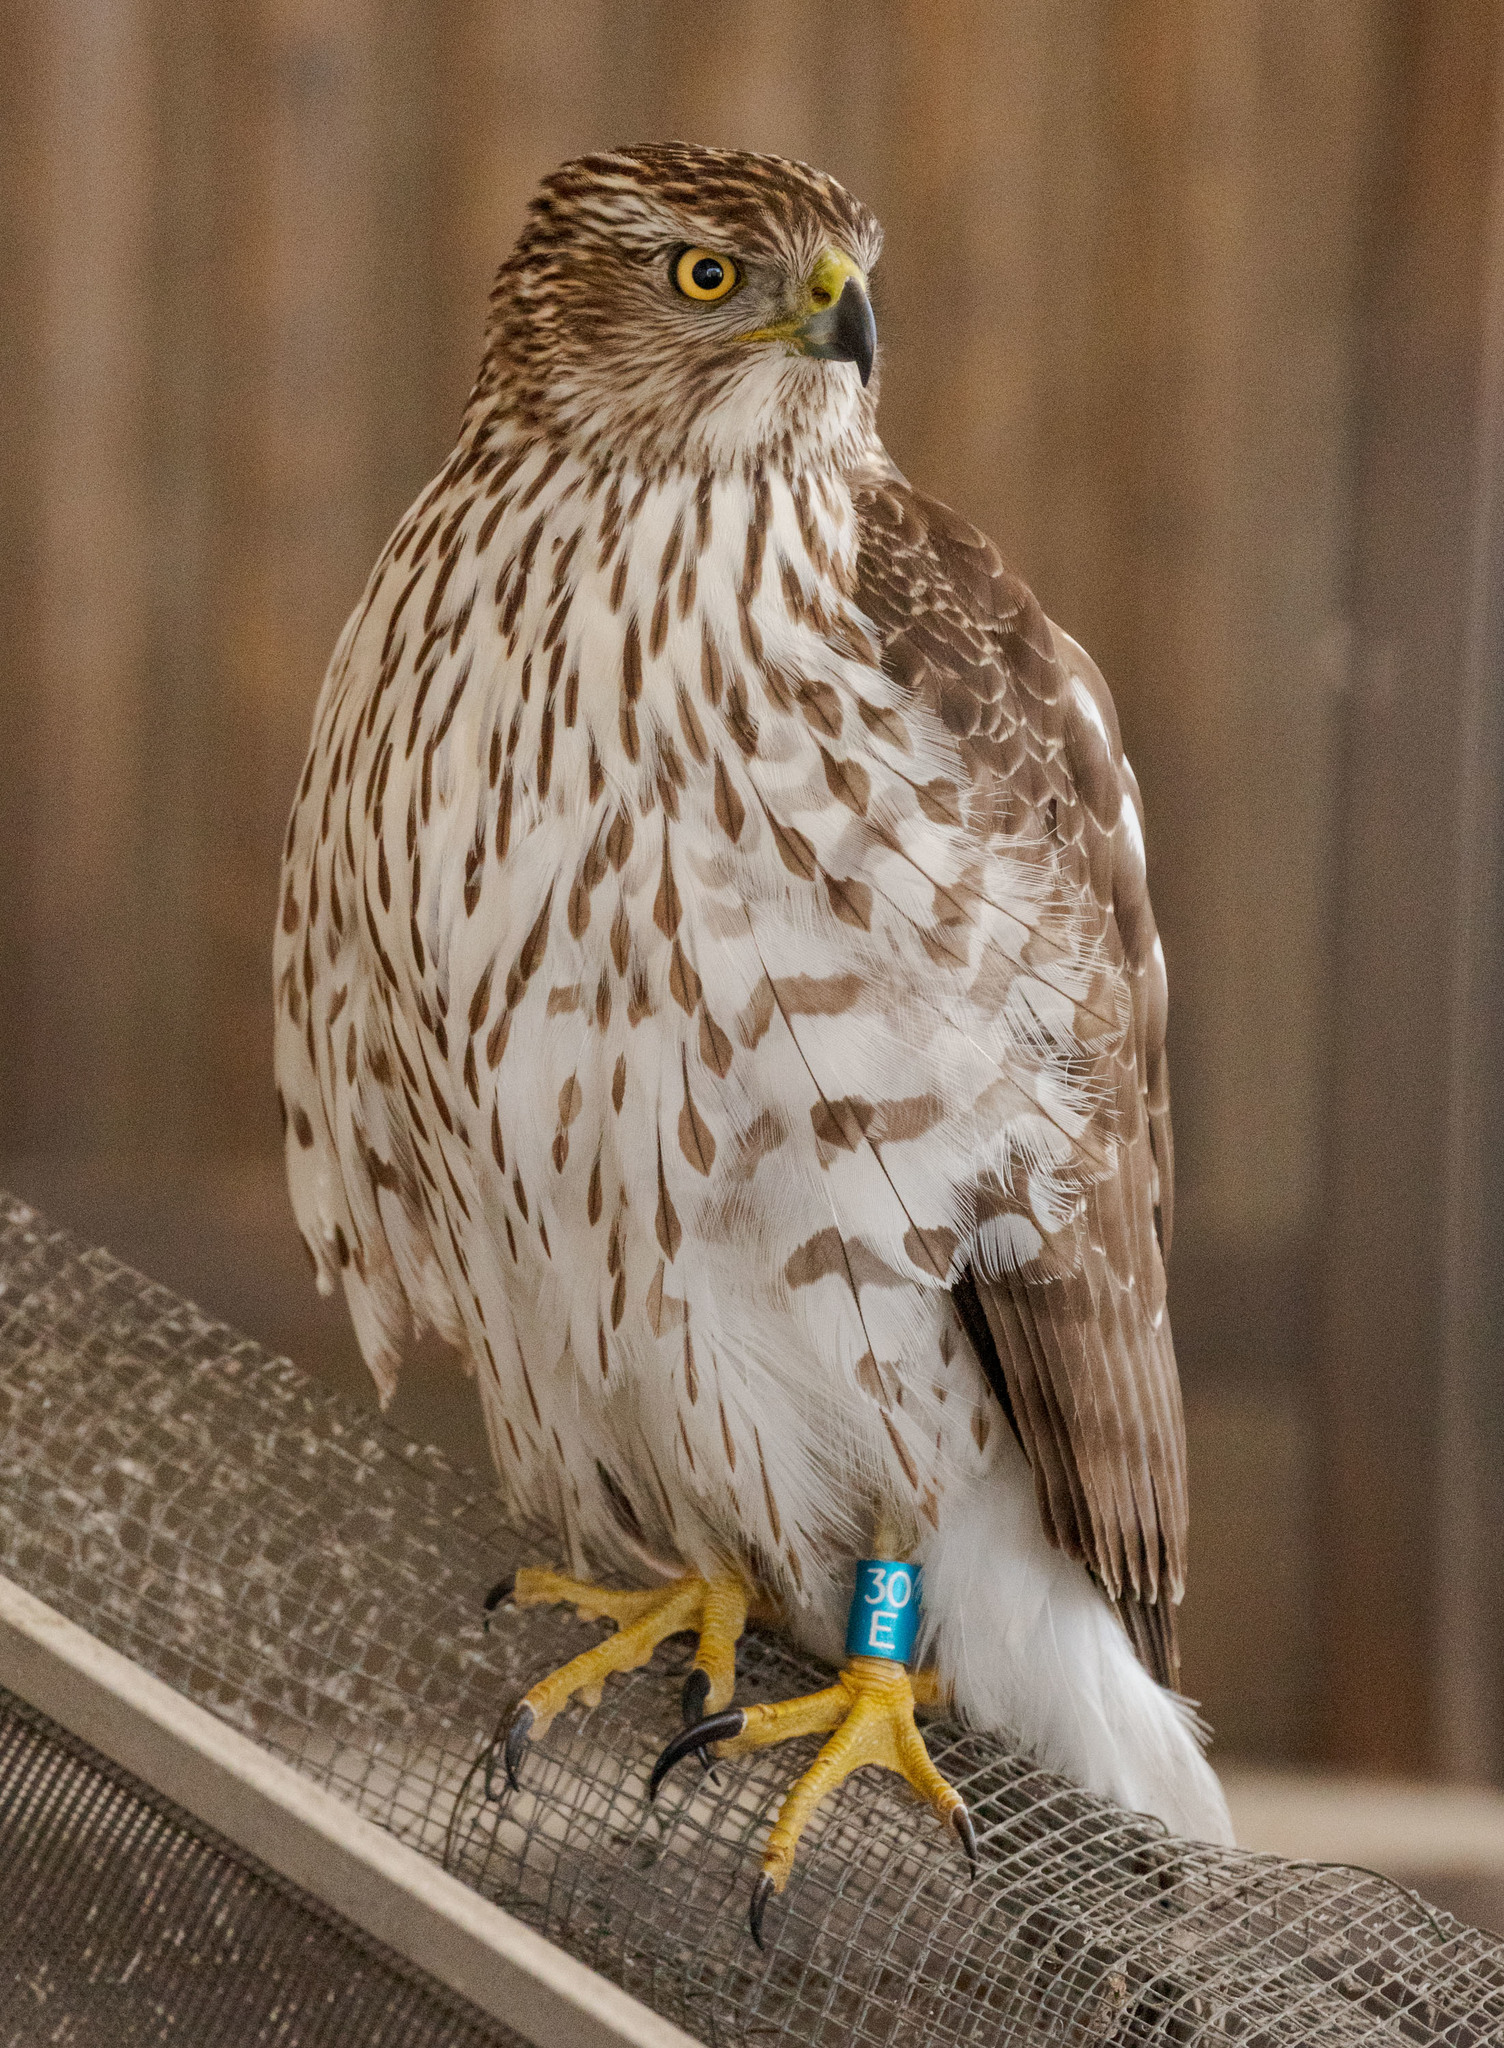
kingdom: Animalia
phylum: Chordata
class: Aves
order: Accipitriformes
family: Accipitridae
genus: Accipiter
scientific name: Accipiter cooperii
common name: Cooper's hawk
